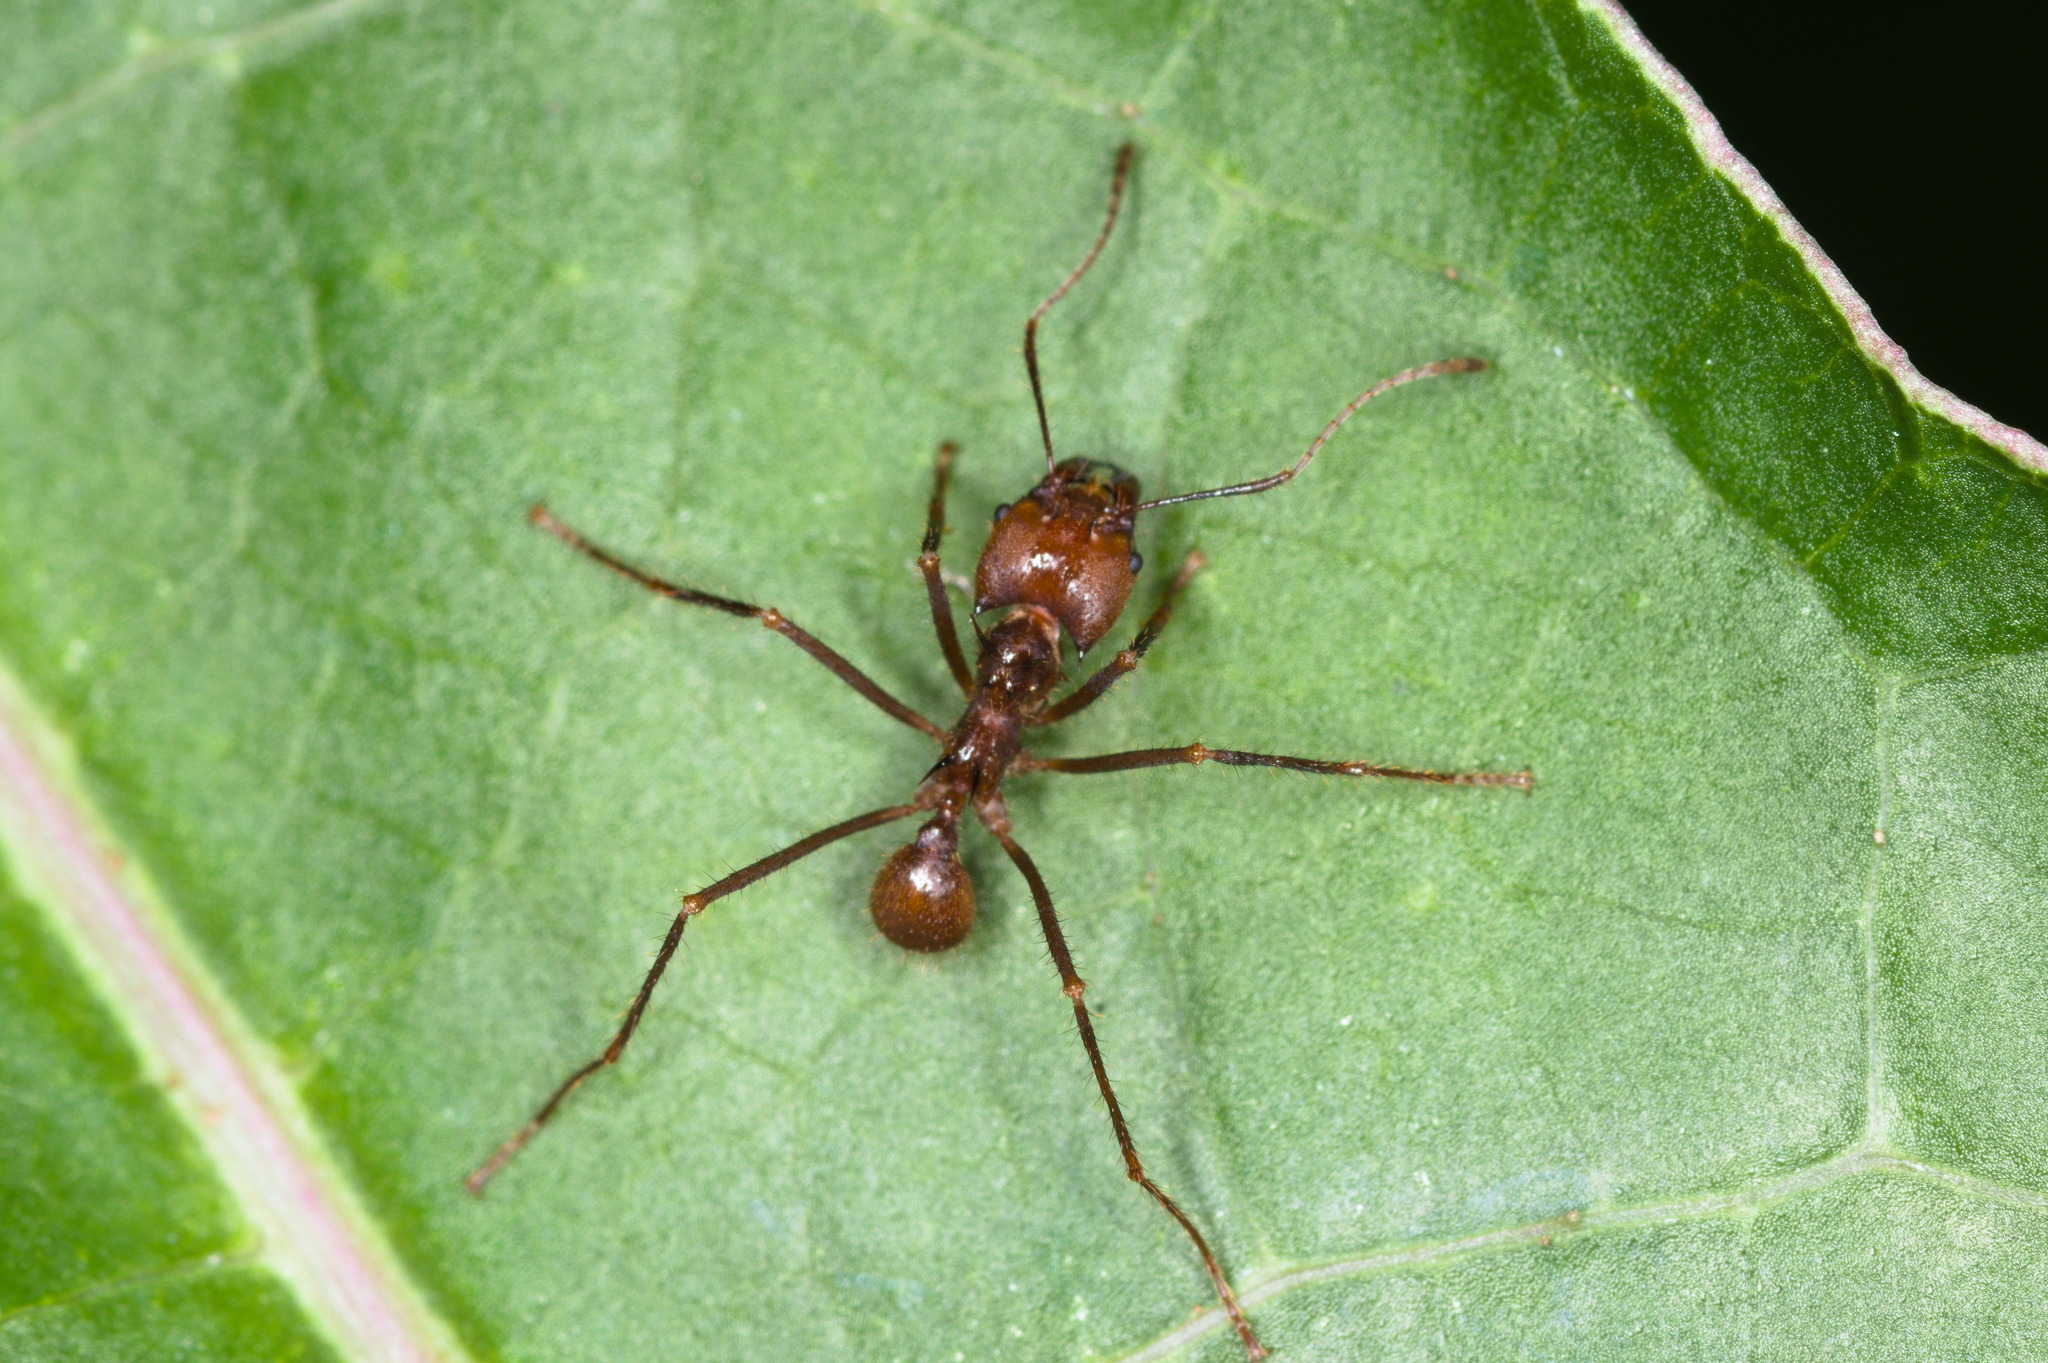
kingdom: Animalia
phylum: Arthropoda
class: Insecta
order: Hymenoptera
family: Formicidae
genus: Atta
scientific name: Atta cephalotes
